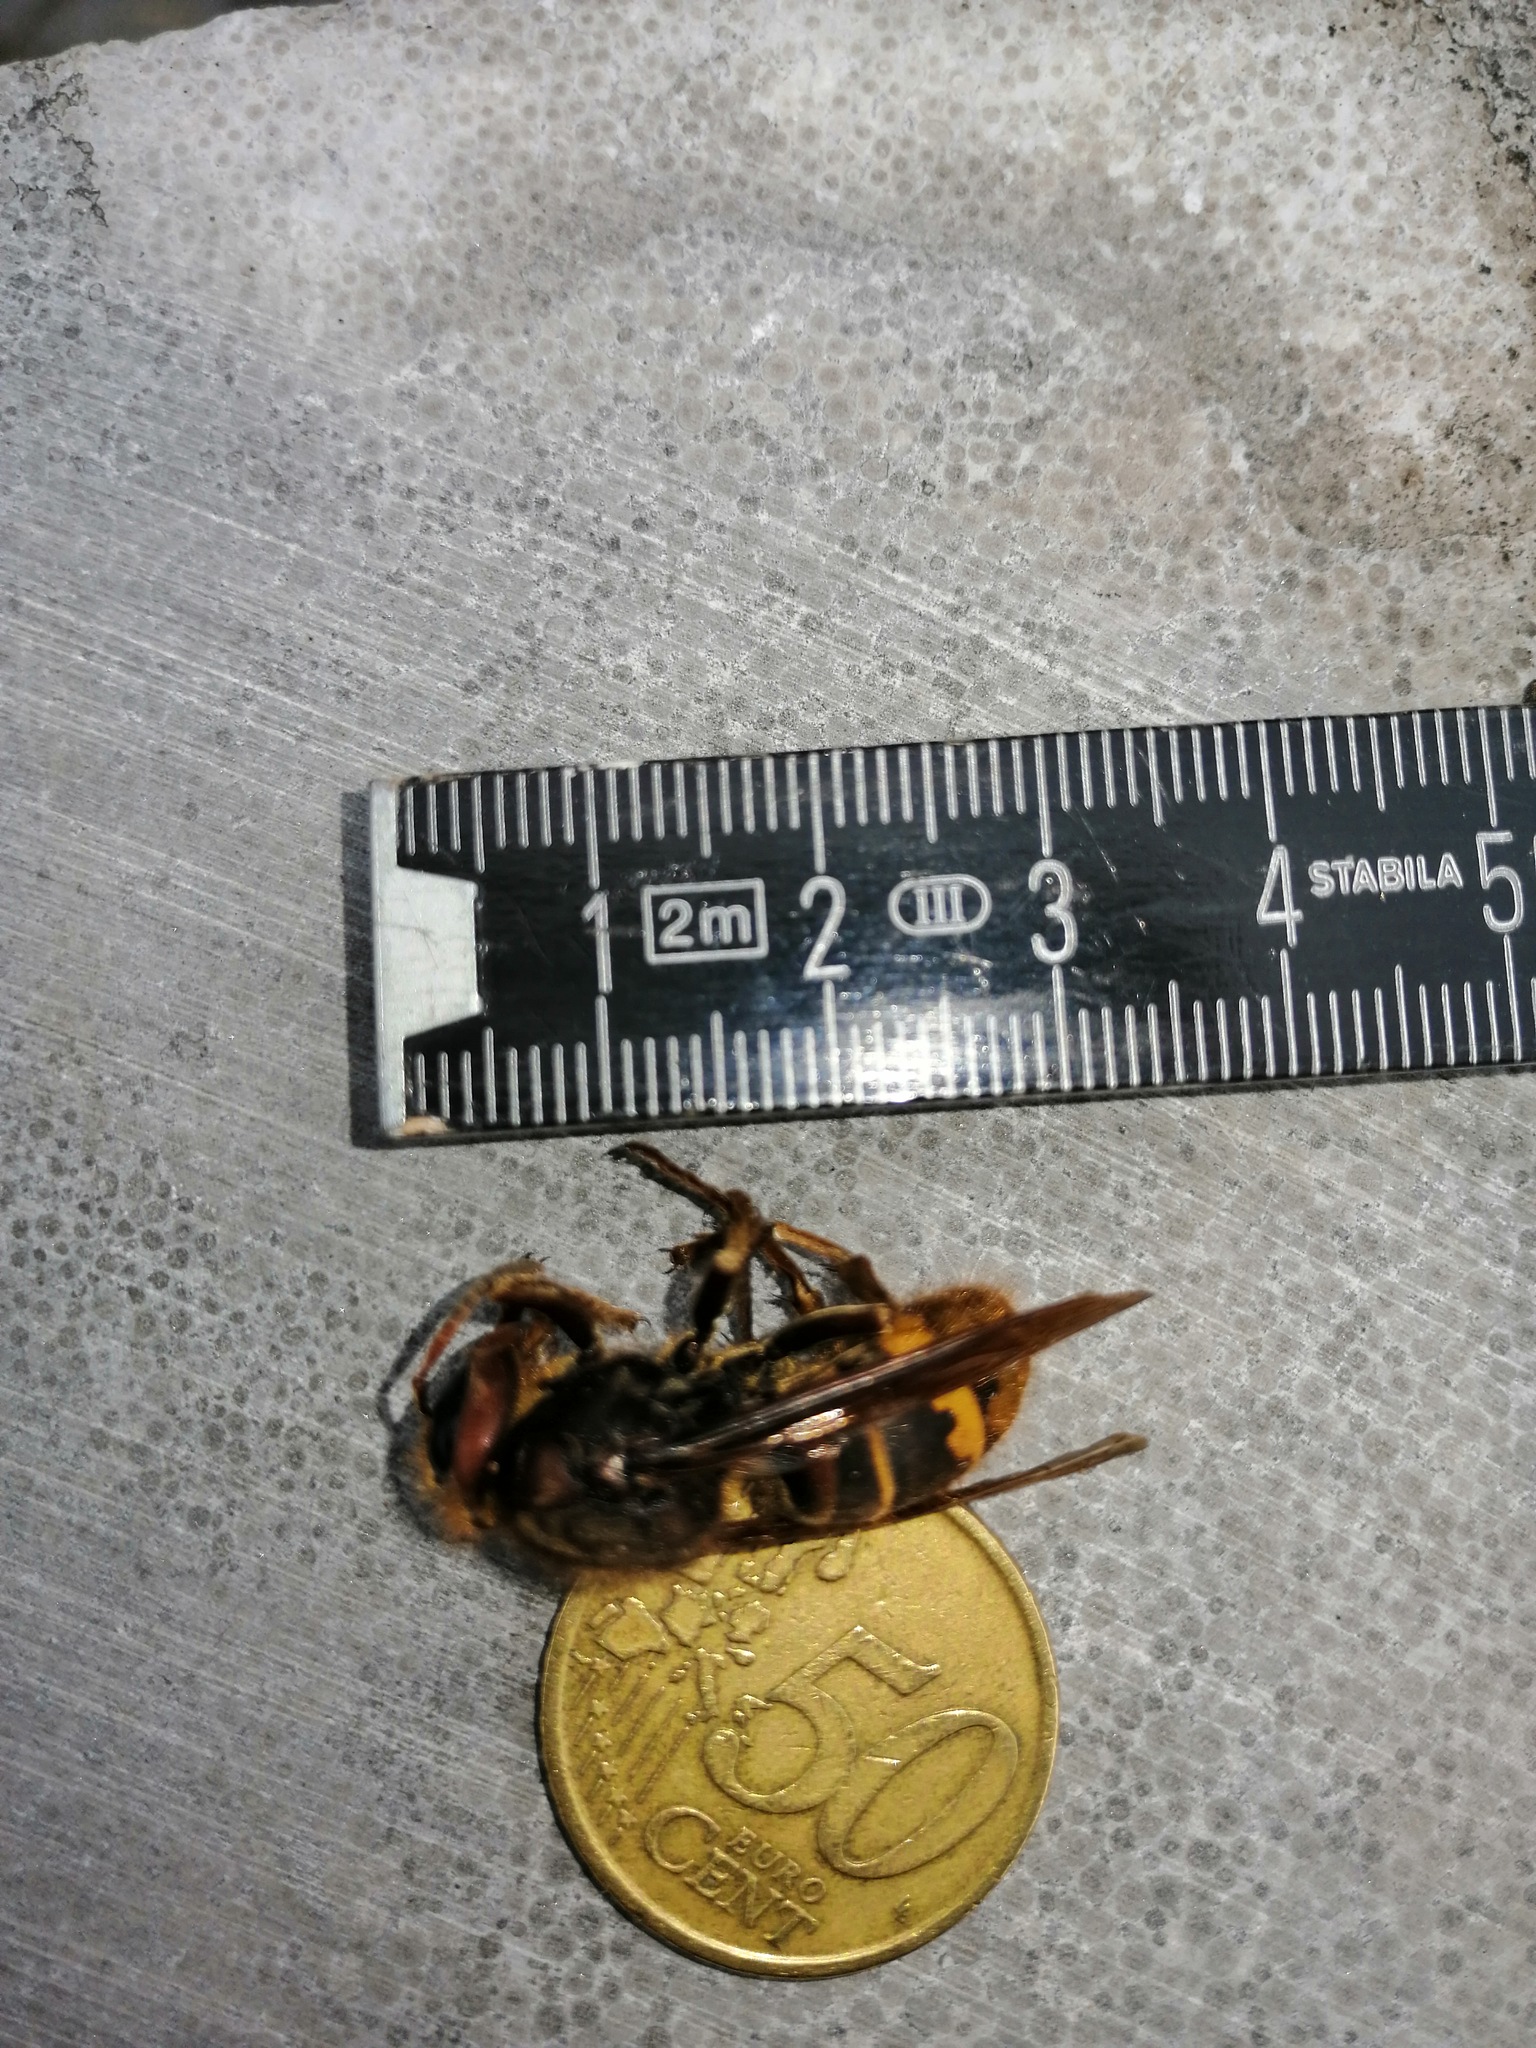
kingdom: Animalia
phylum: Arthropoda
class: Insecta
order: Hymenoptera
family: Vespidae
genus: Vespa
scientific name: Vespa crabro
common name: Hornet
